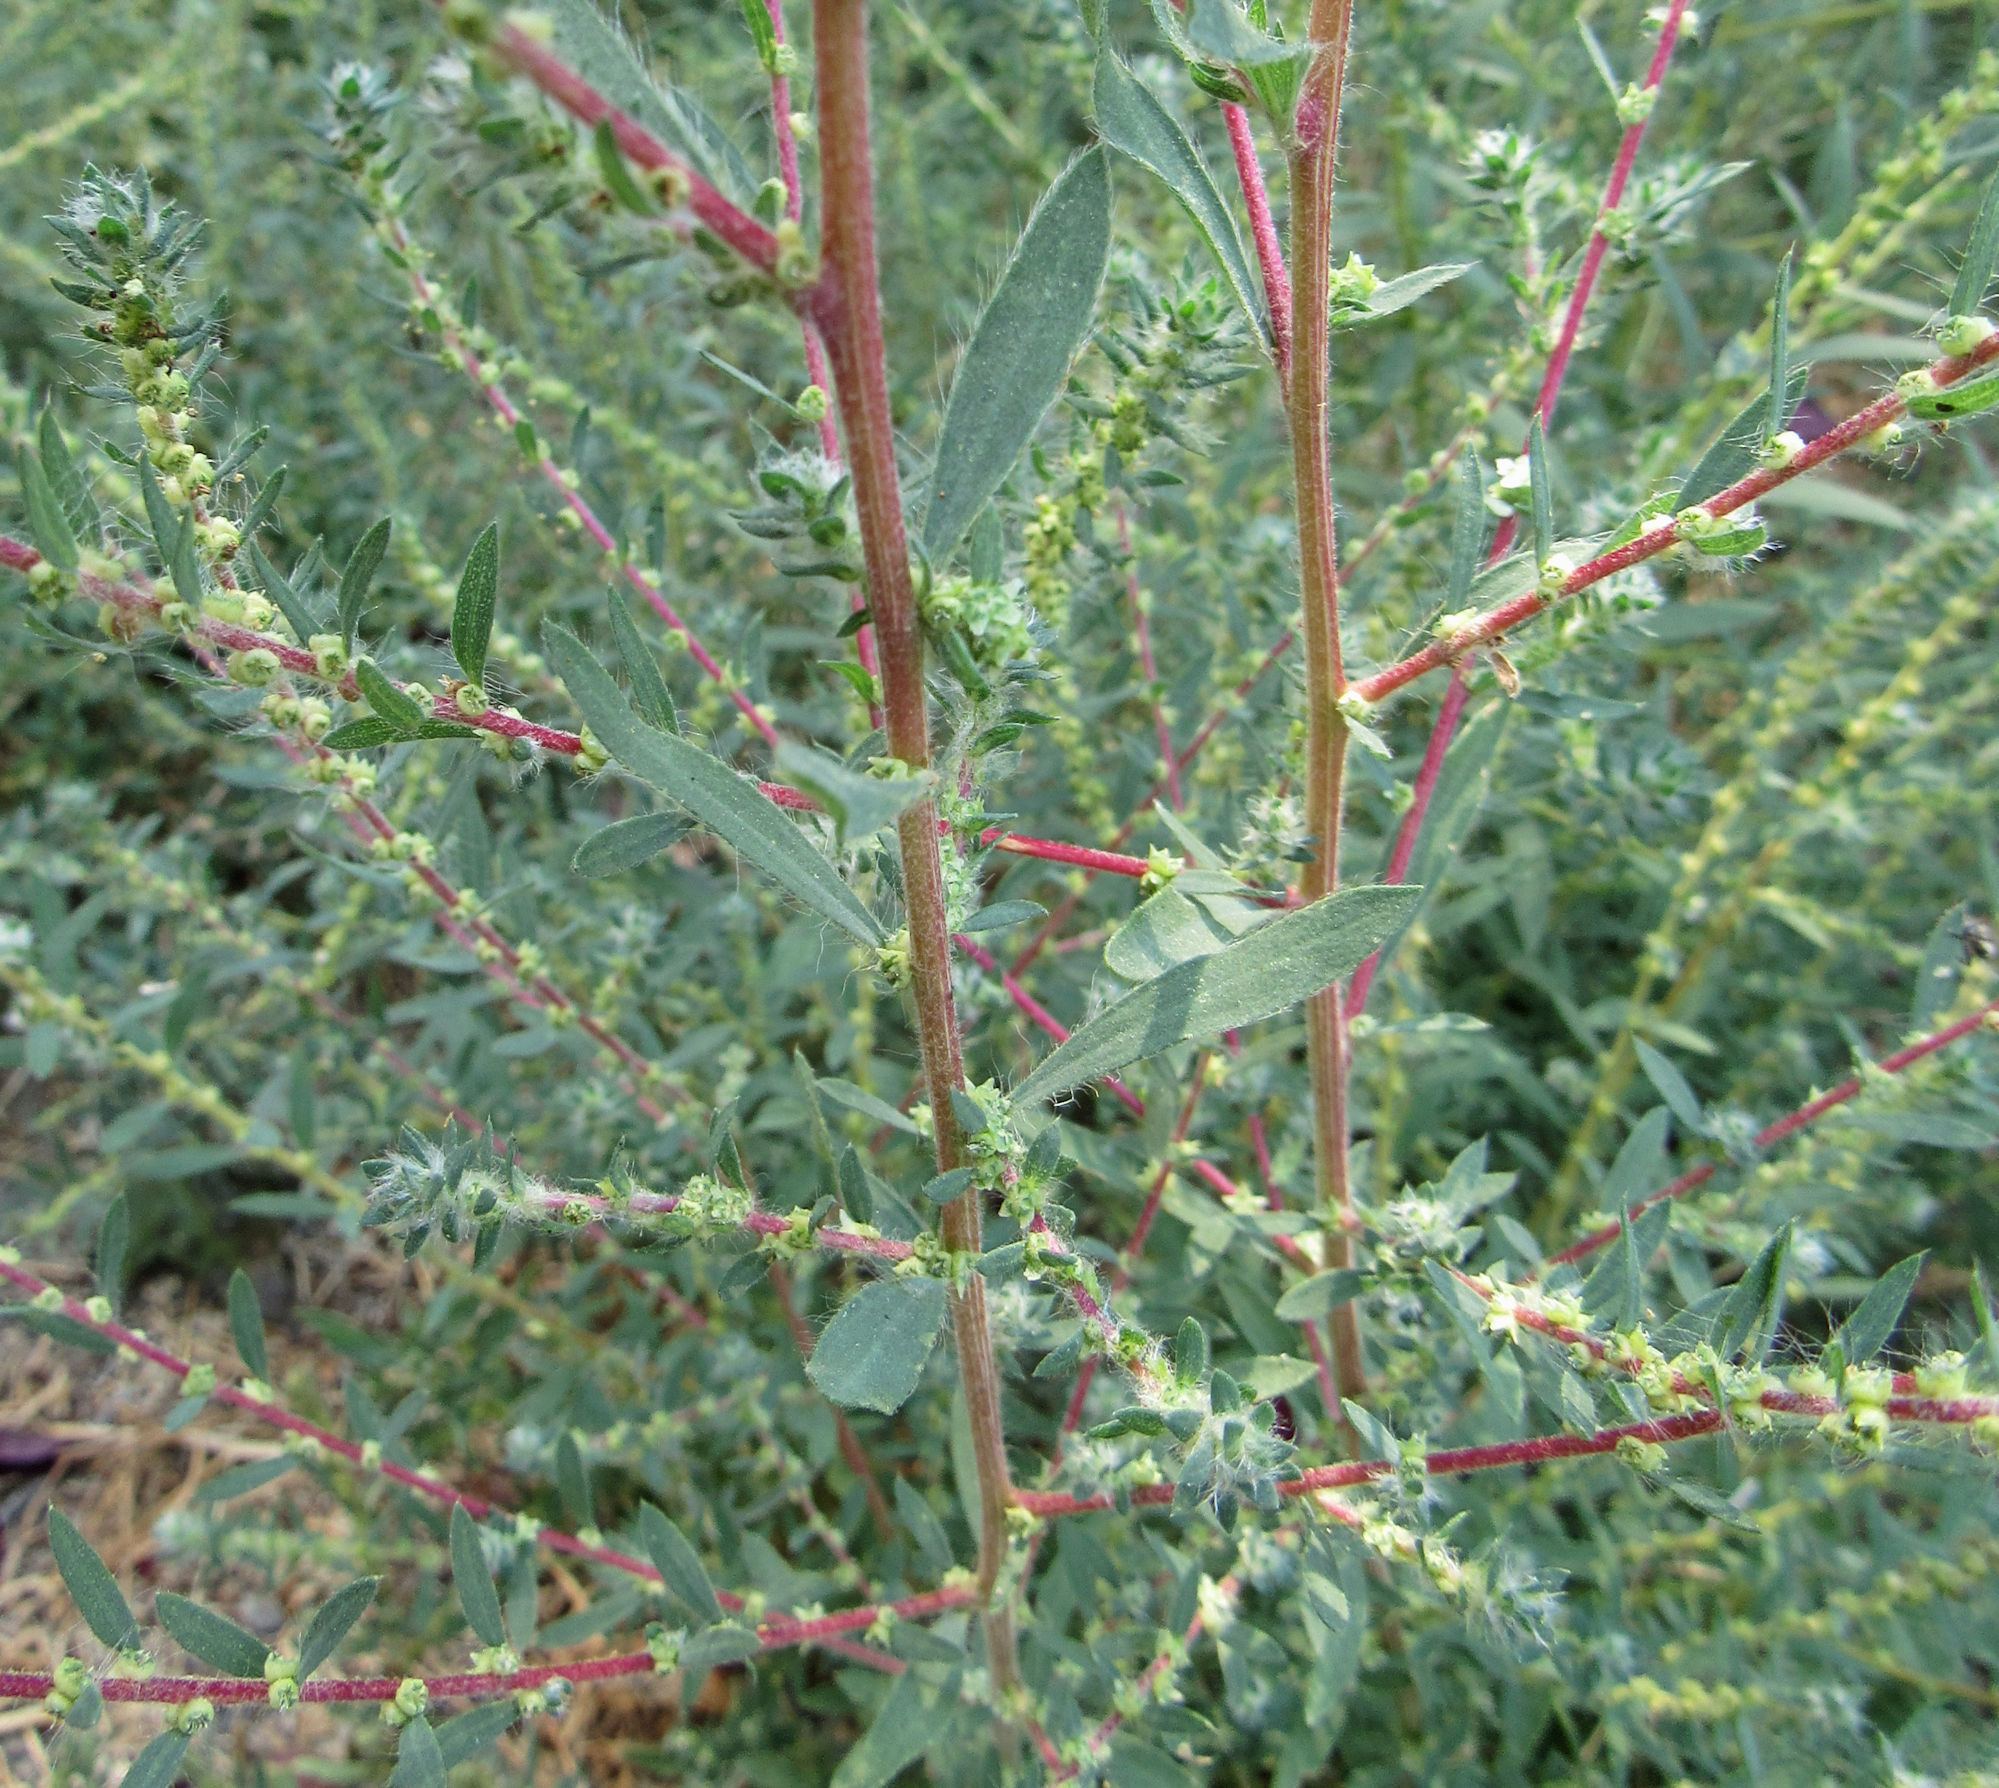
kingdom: Plantae
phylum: Tracheophyta
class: Magnoliopsida
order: Caryophyllales
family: Amaranthaceae
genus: Bassia
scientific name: Bassia scoparia
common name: Belvedere
